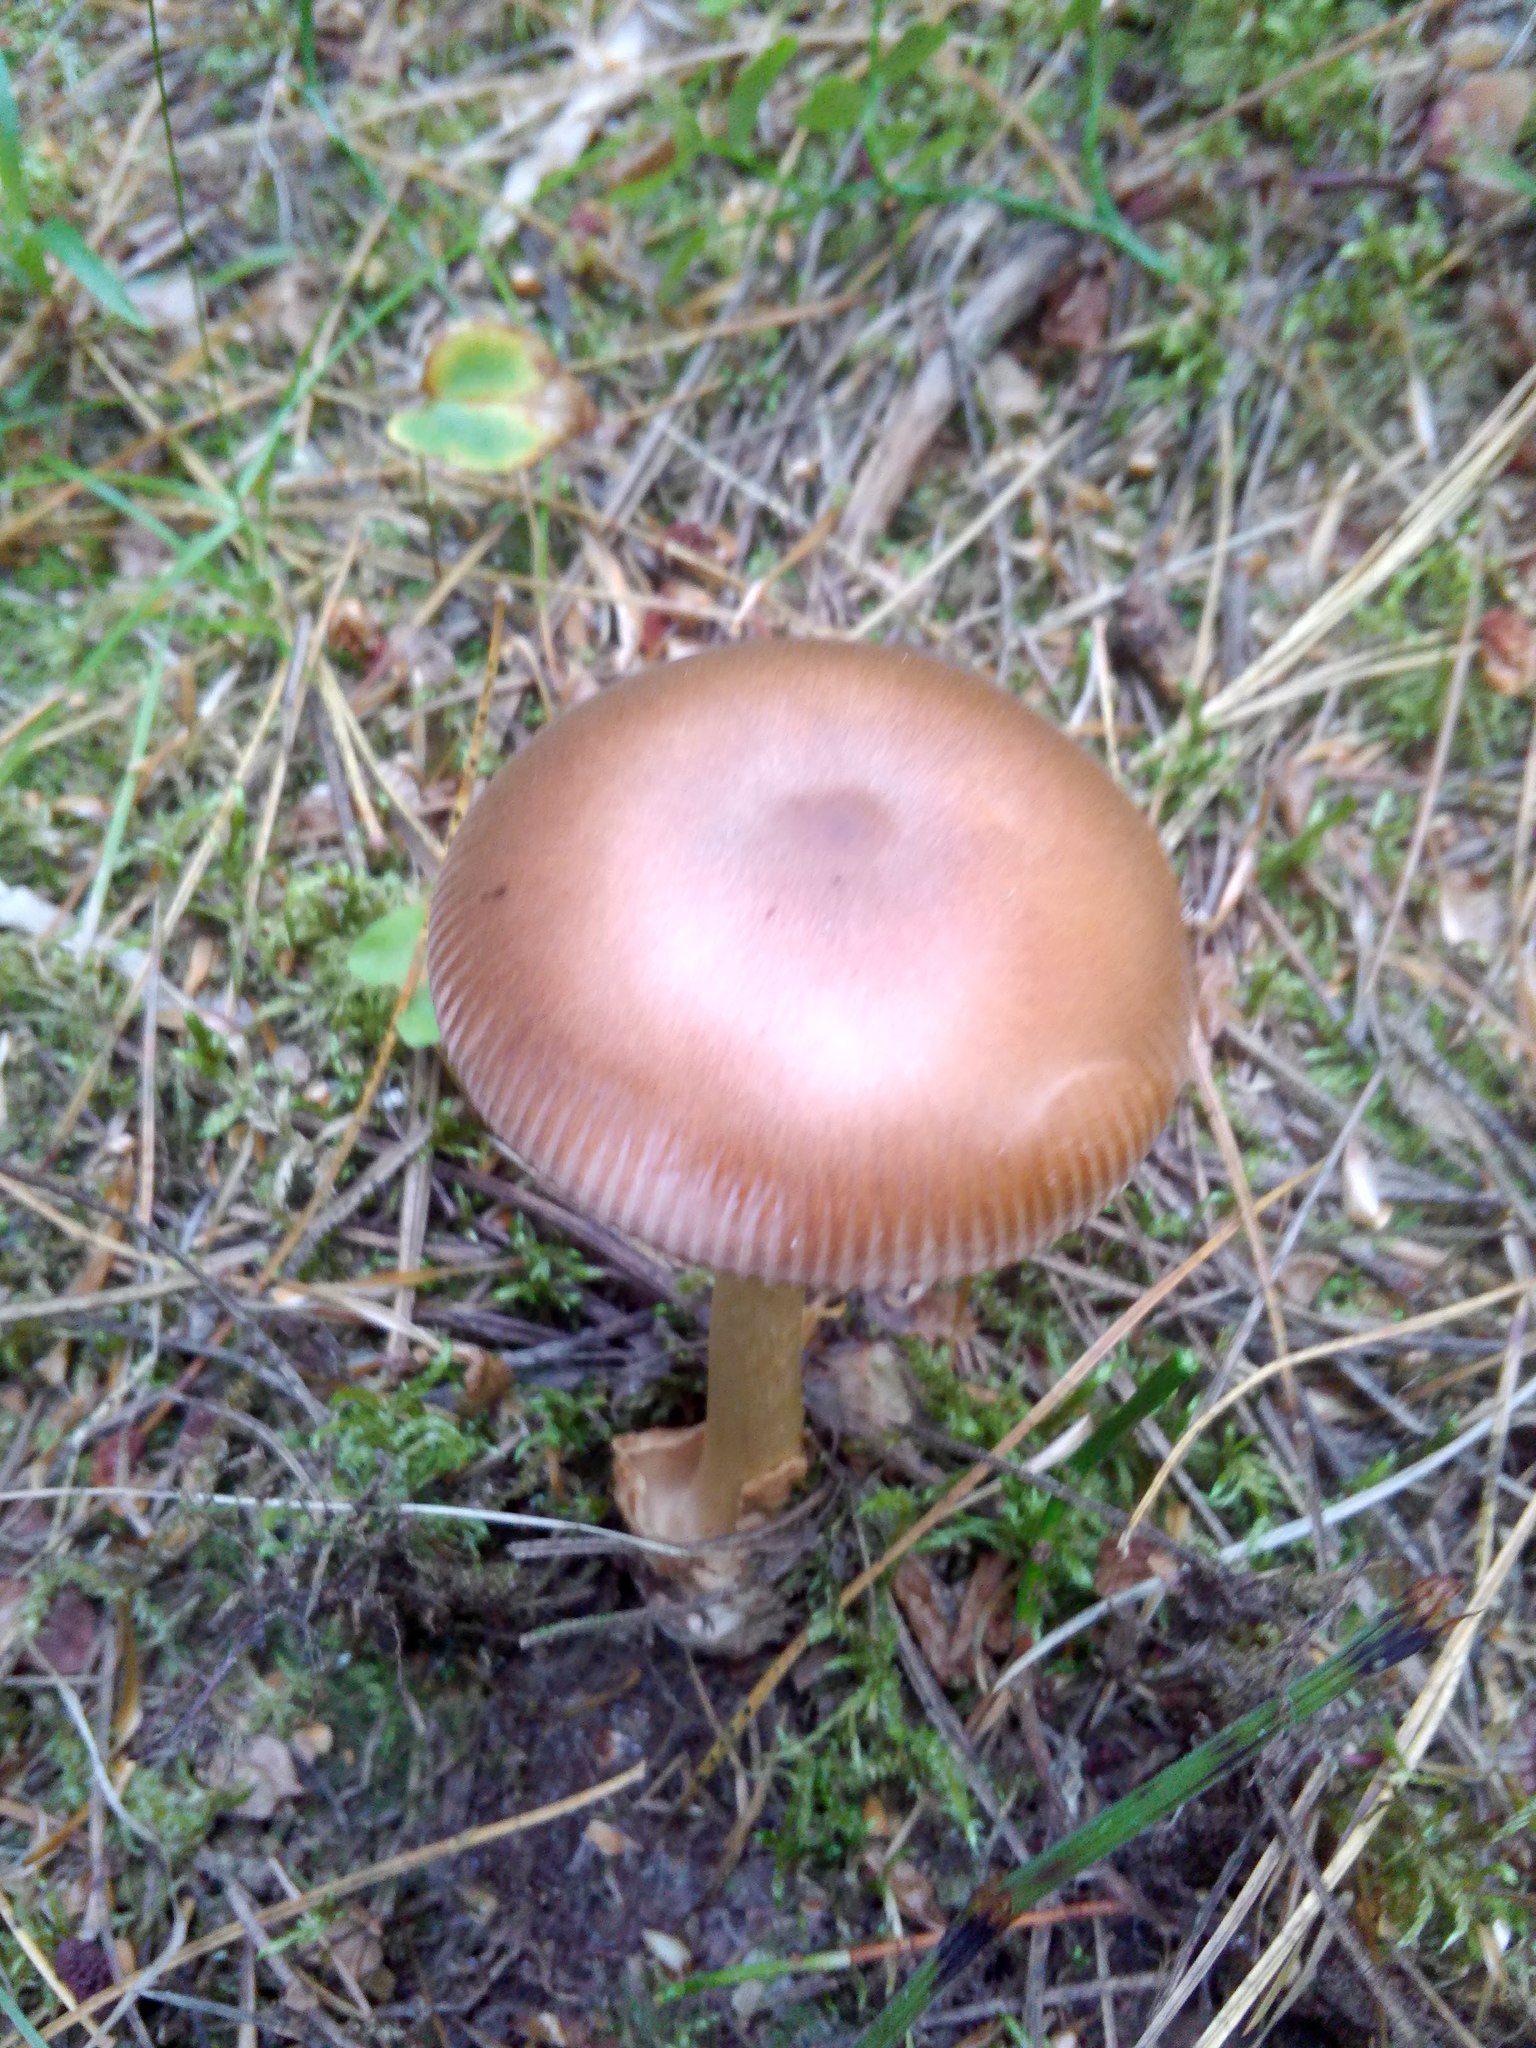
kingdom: Fungi
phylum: Basidiomycota
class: Agaricomycetes
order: Agaricales
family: Amanitaceae
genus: Amanita
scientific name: Amanita fulva
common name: Tawny grisette
